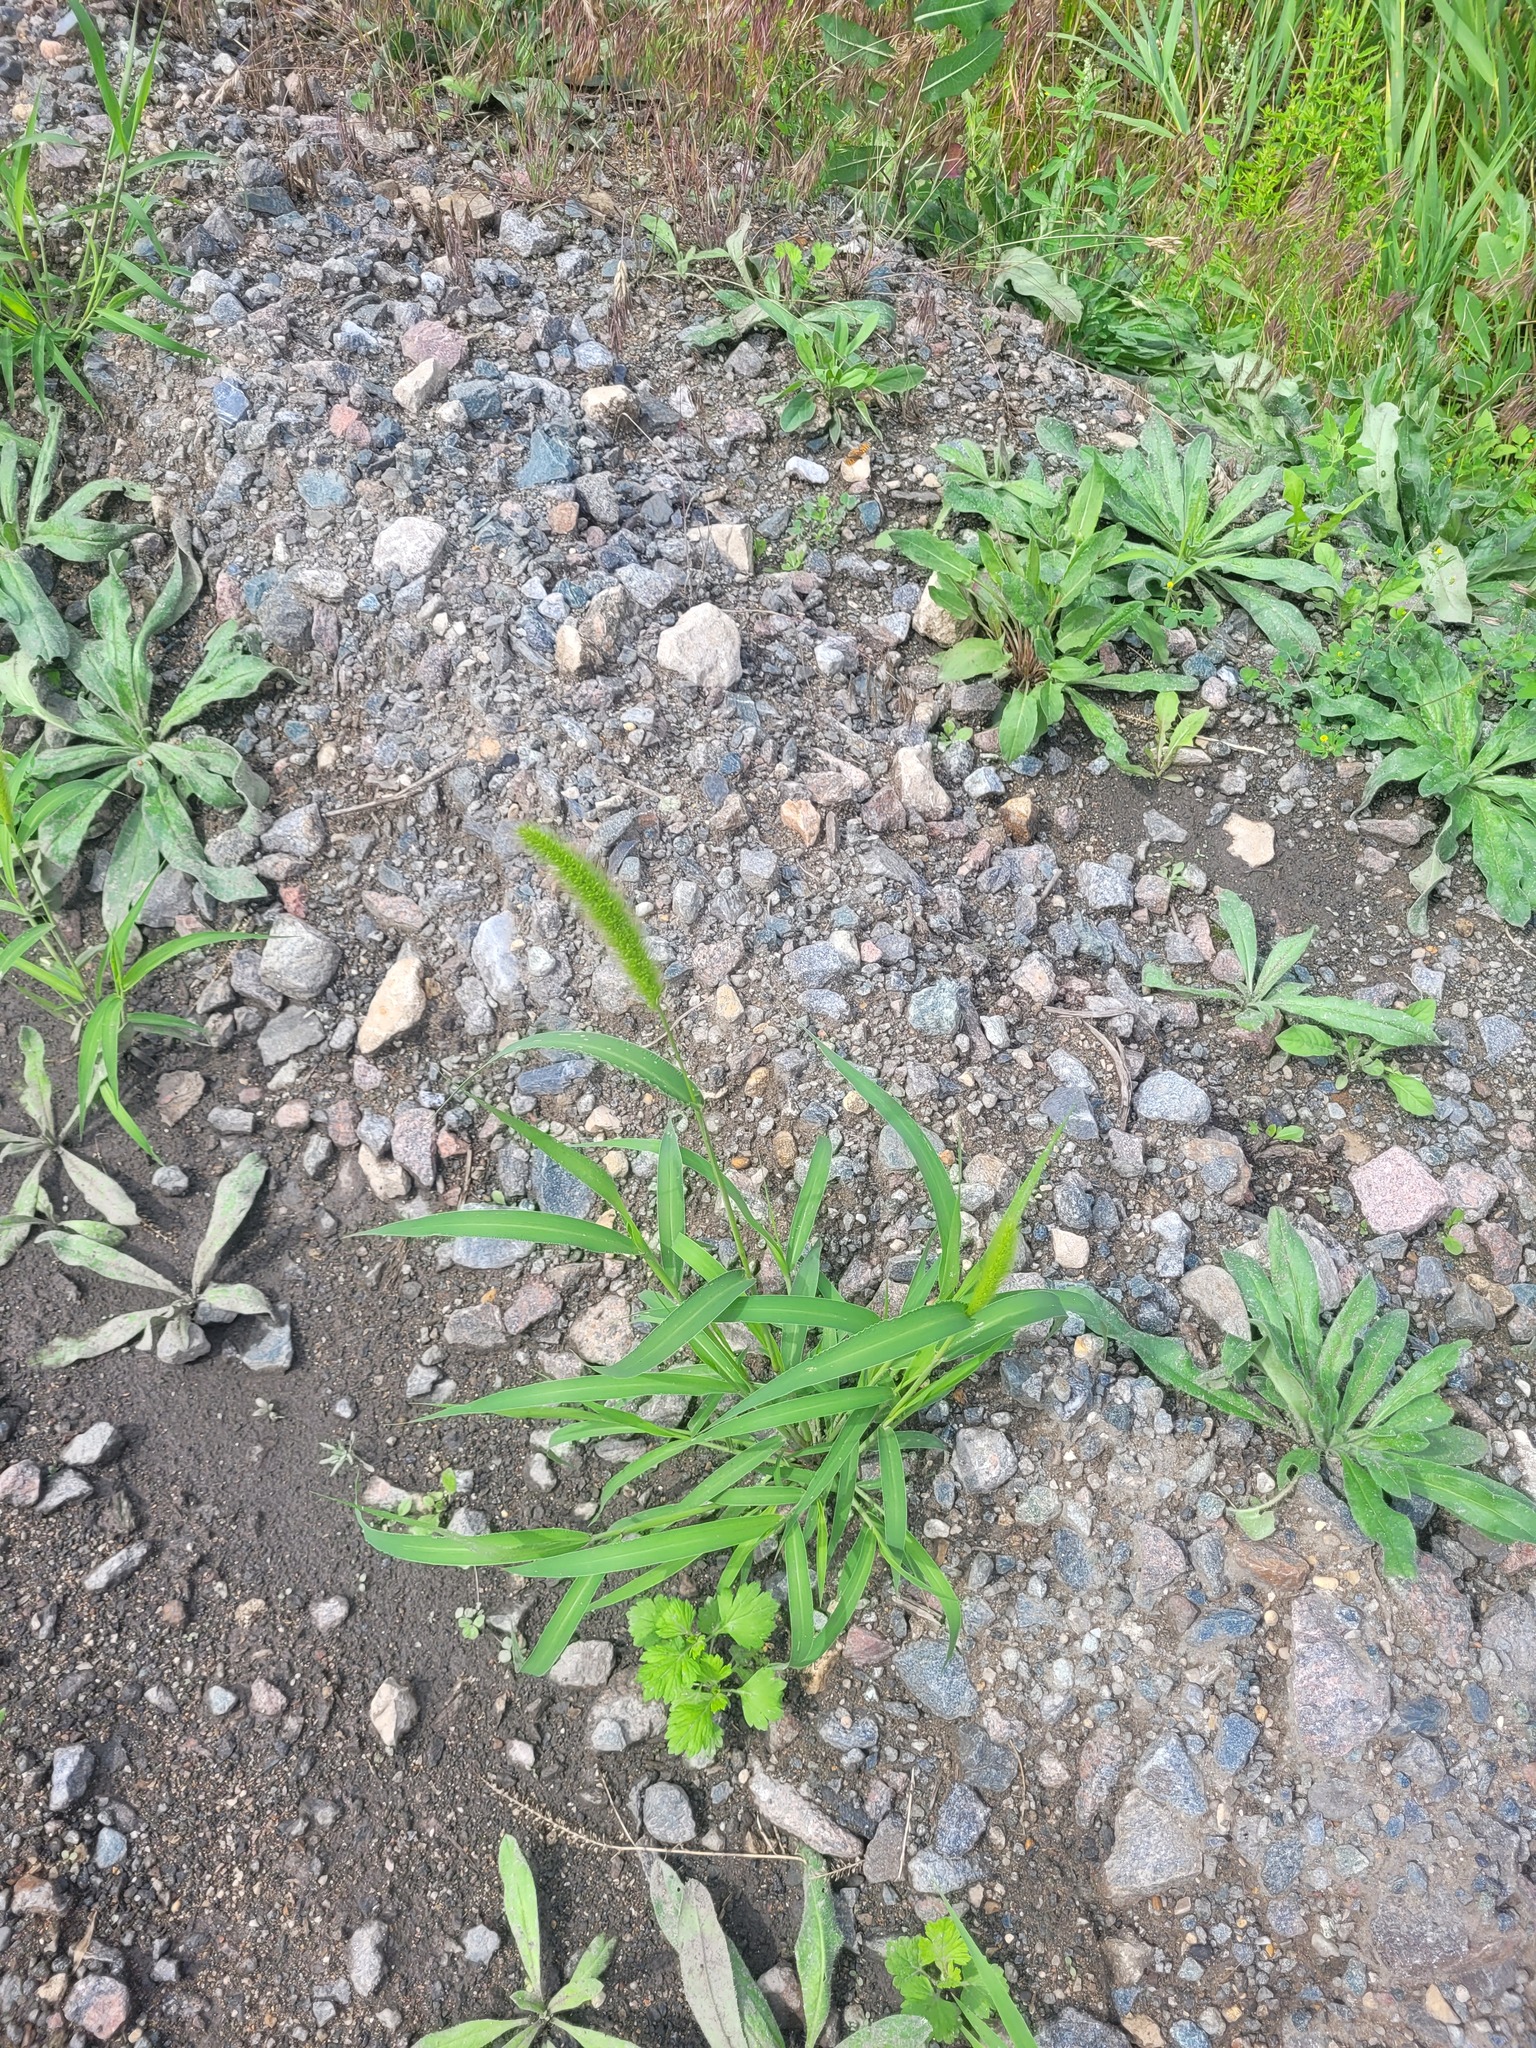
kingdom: Plantae
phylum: Tracheophyta
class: Liliopsida
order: Poales
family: Poaceae
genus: Setaria
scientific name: Setaria viridis
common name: Green bristlegrass
